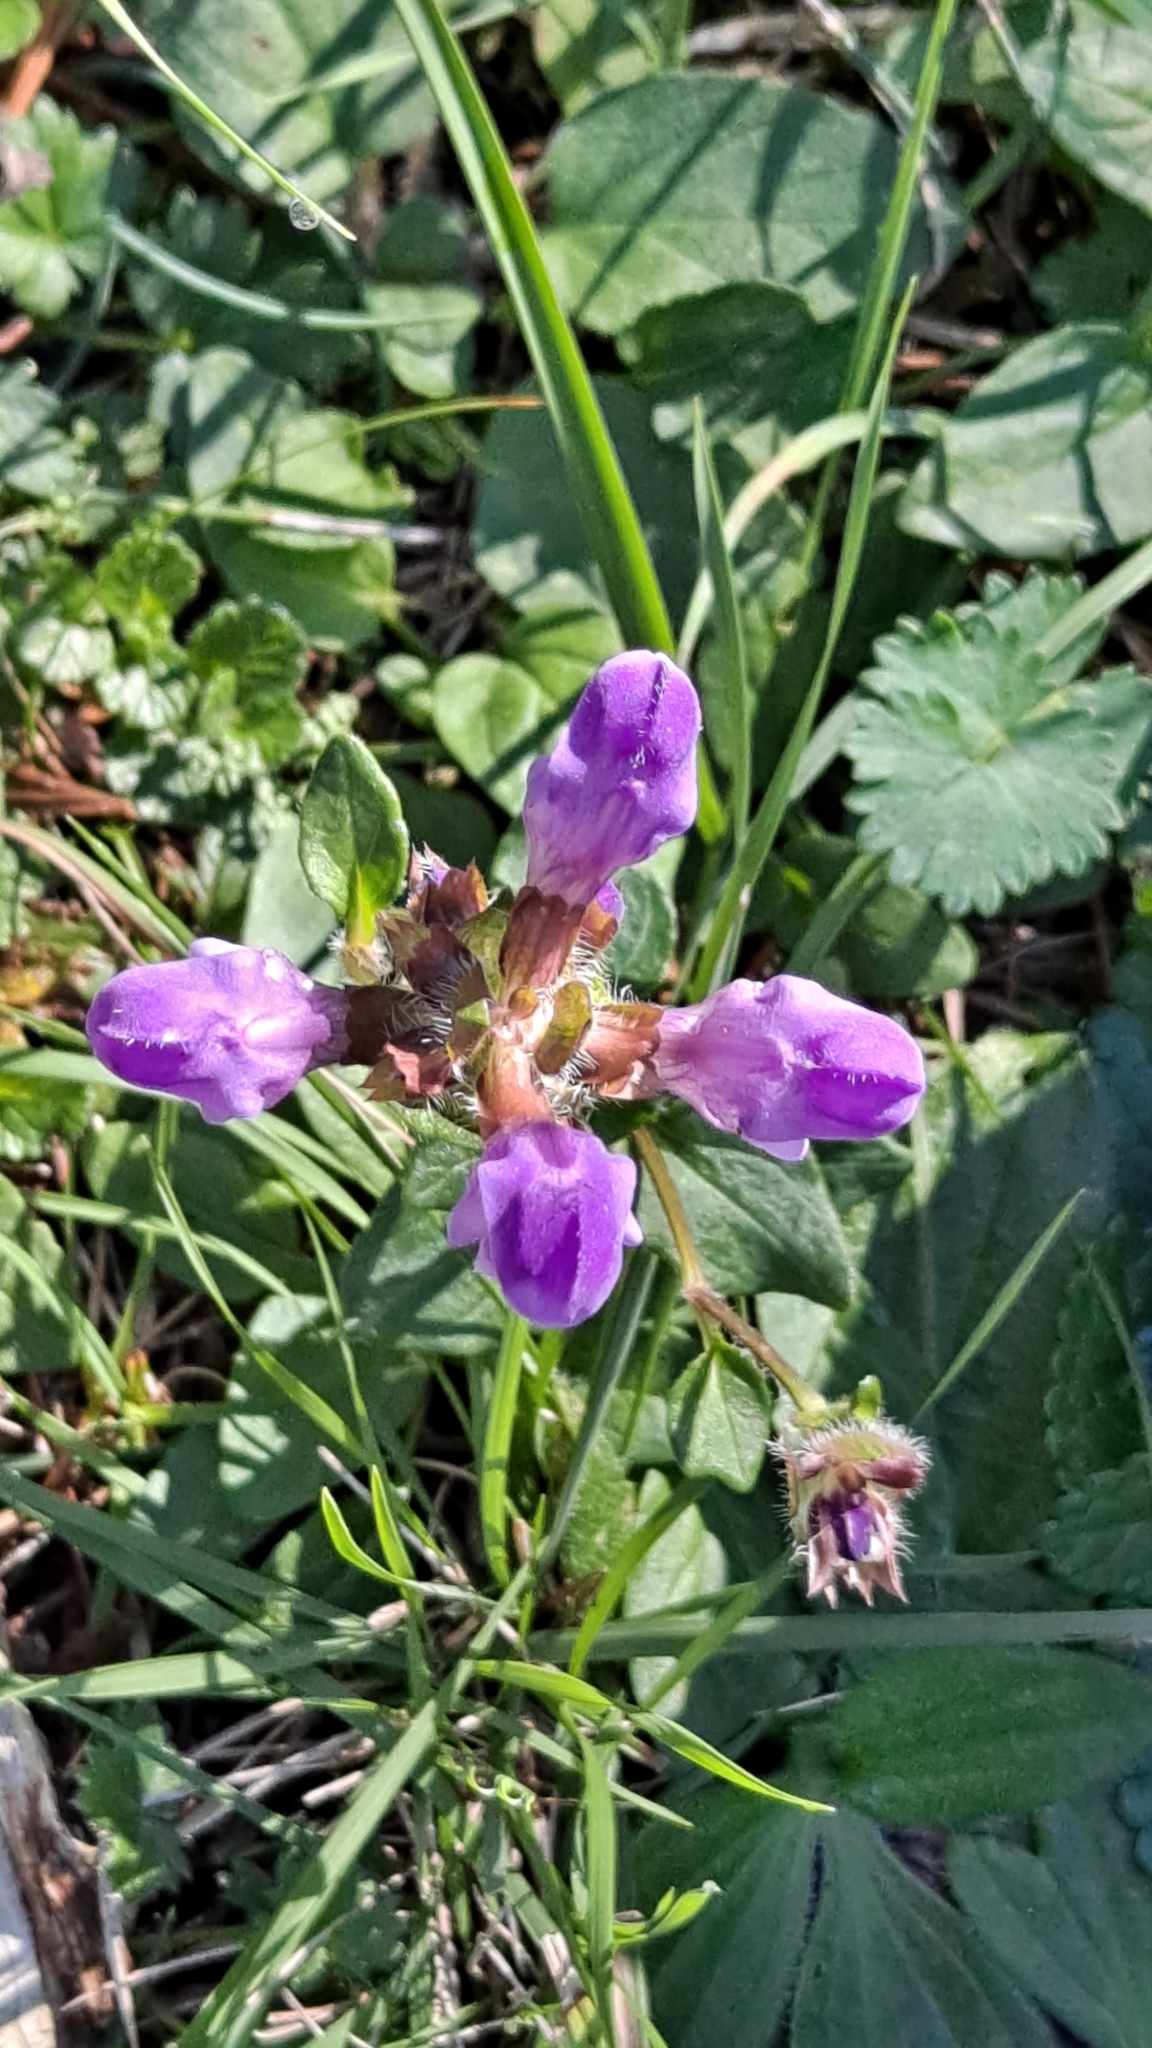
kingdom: Plantae
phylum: Tracheophyta
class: Magnoliopsida
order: Lamiales
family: Lamiaceae
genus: Prunella
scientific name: Prunella vulgaris
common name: Heal-all
